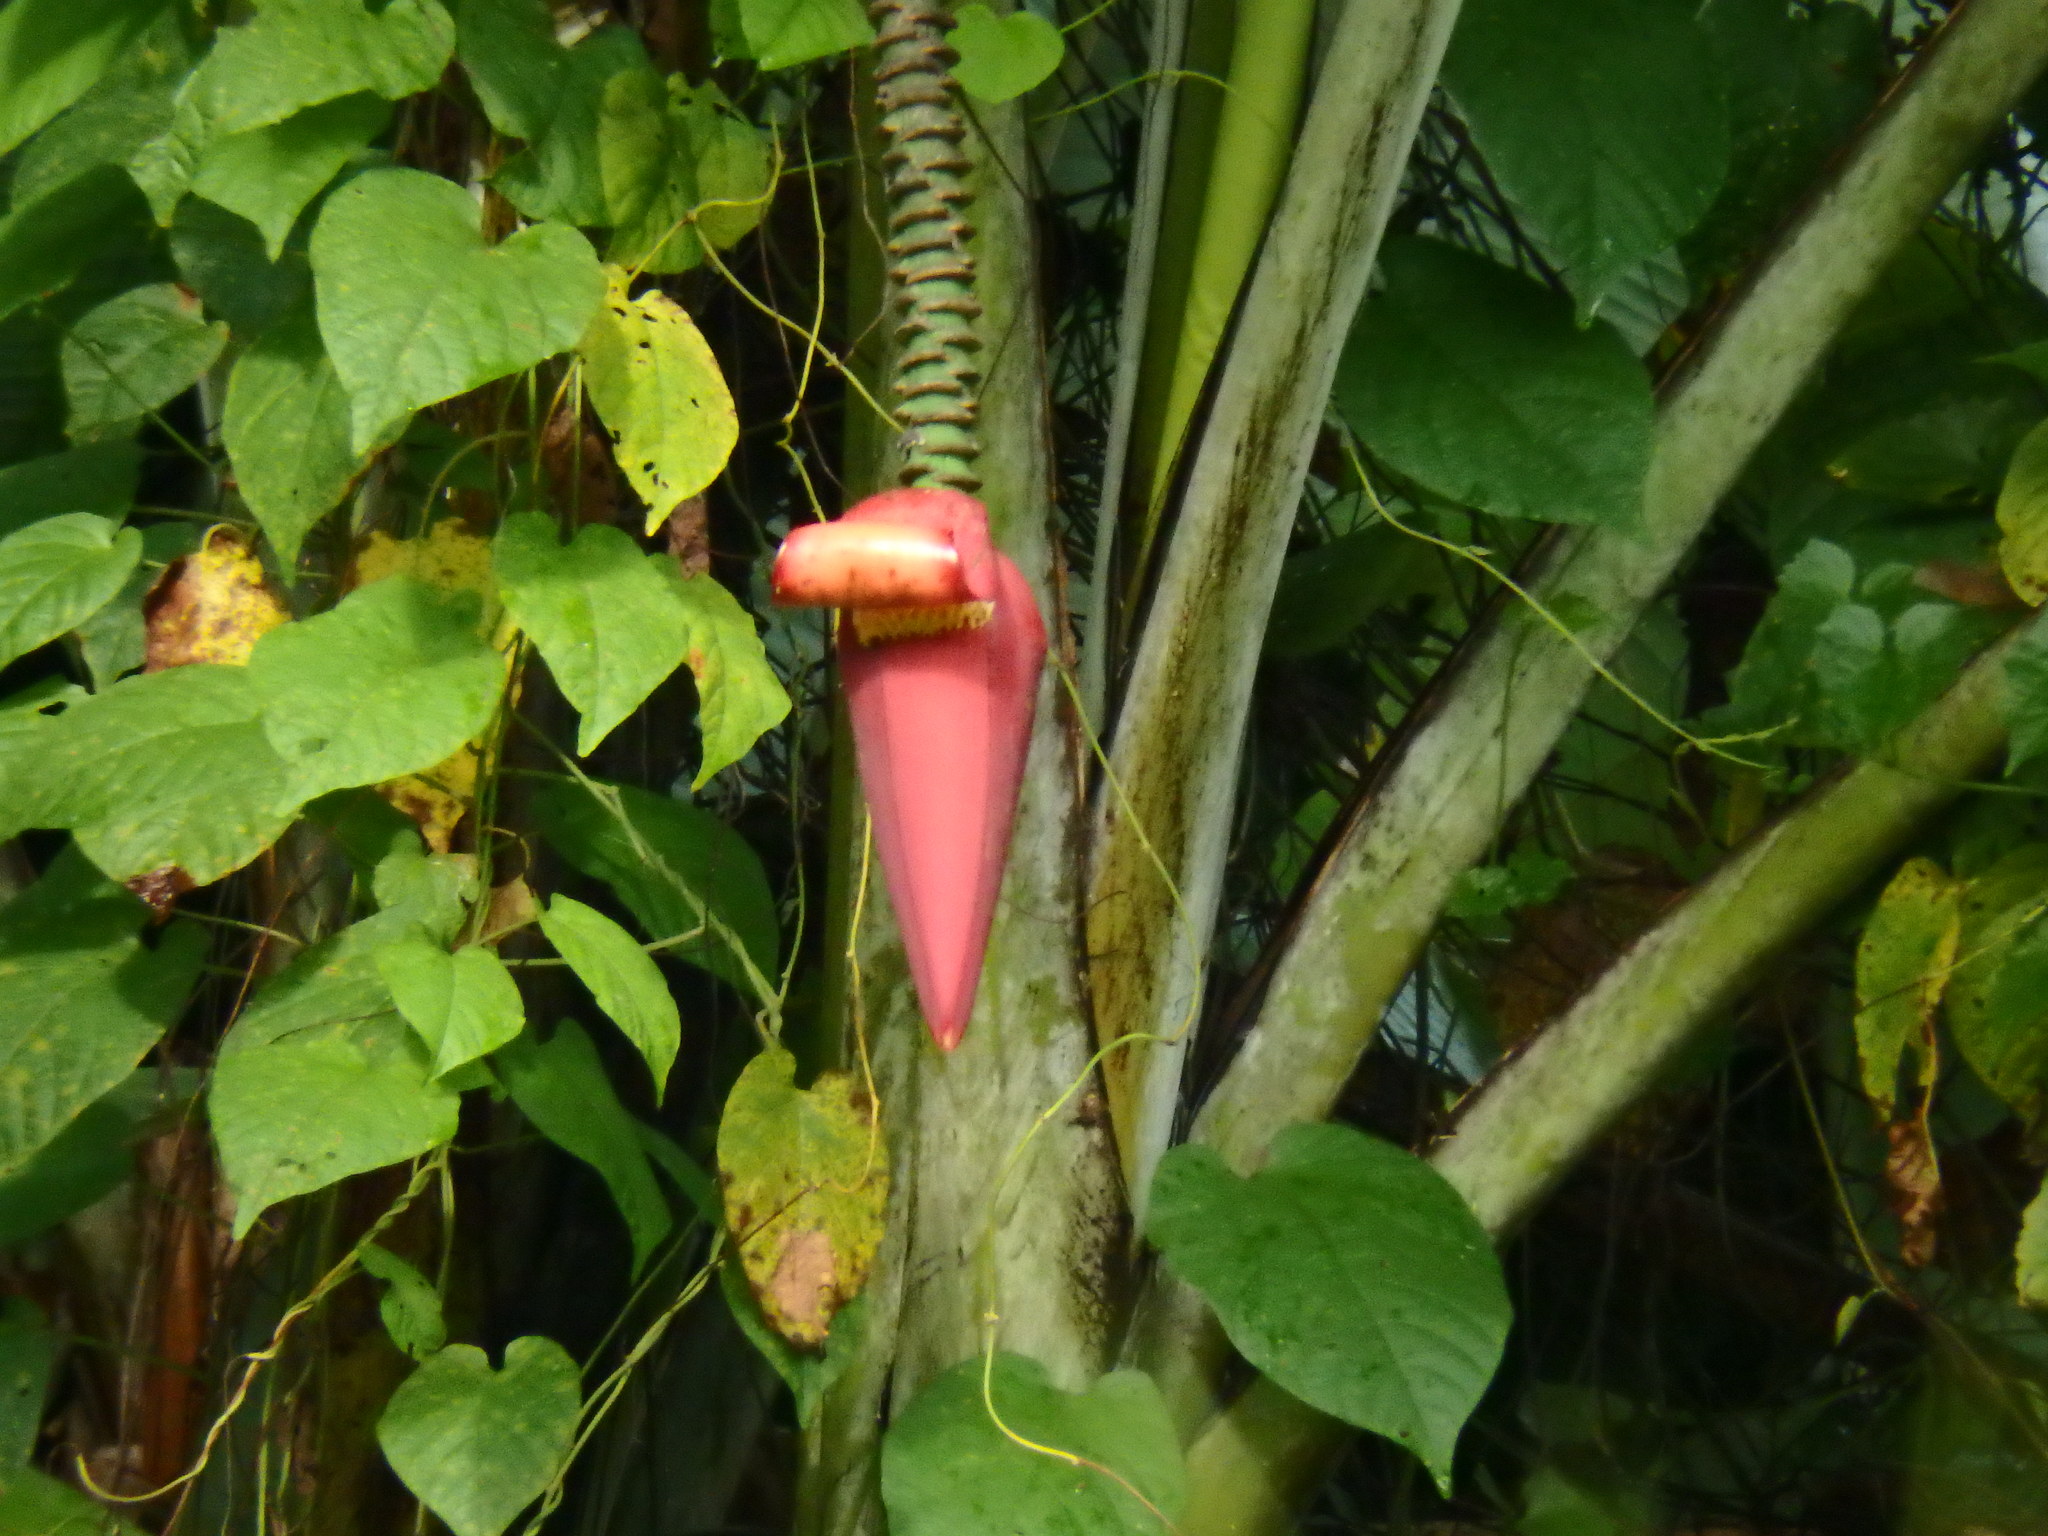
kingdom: Plantae
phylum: Tracheophyta
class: Liliopsida
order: Zingiberales
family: Musaceae
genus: Musa
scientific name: Musa acuminata
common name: Edible banana
